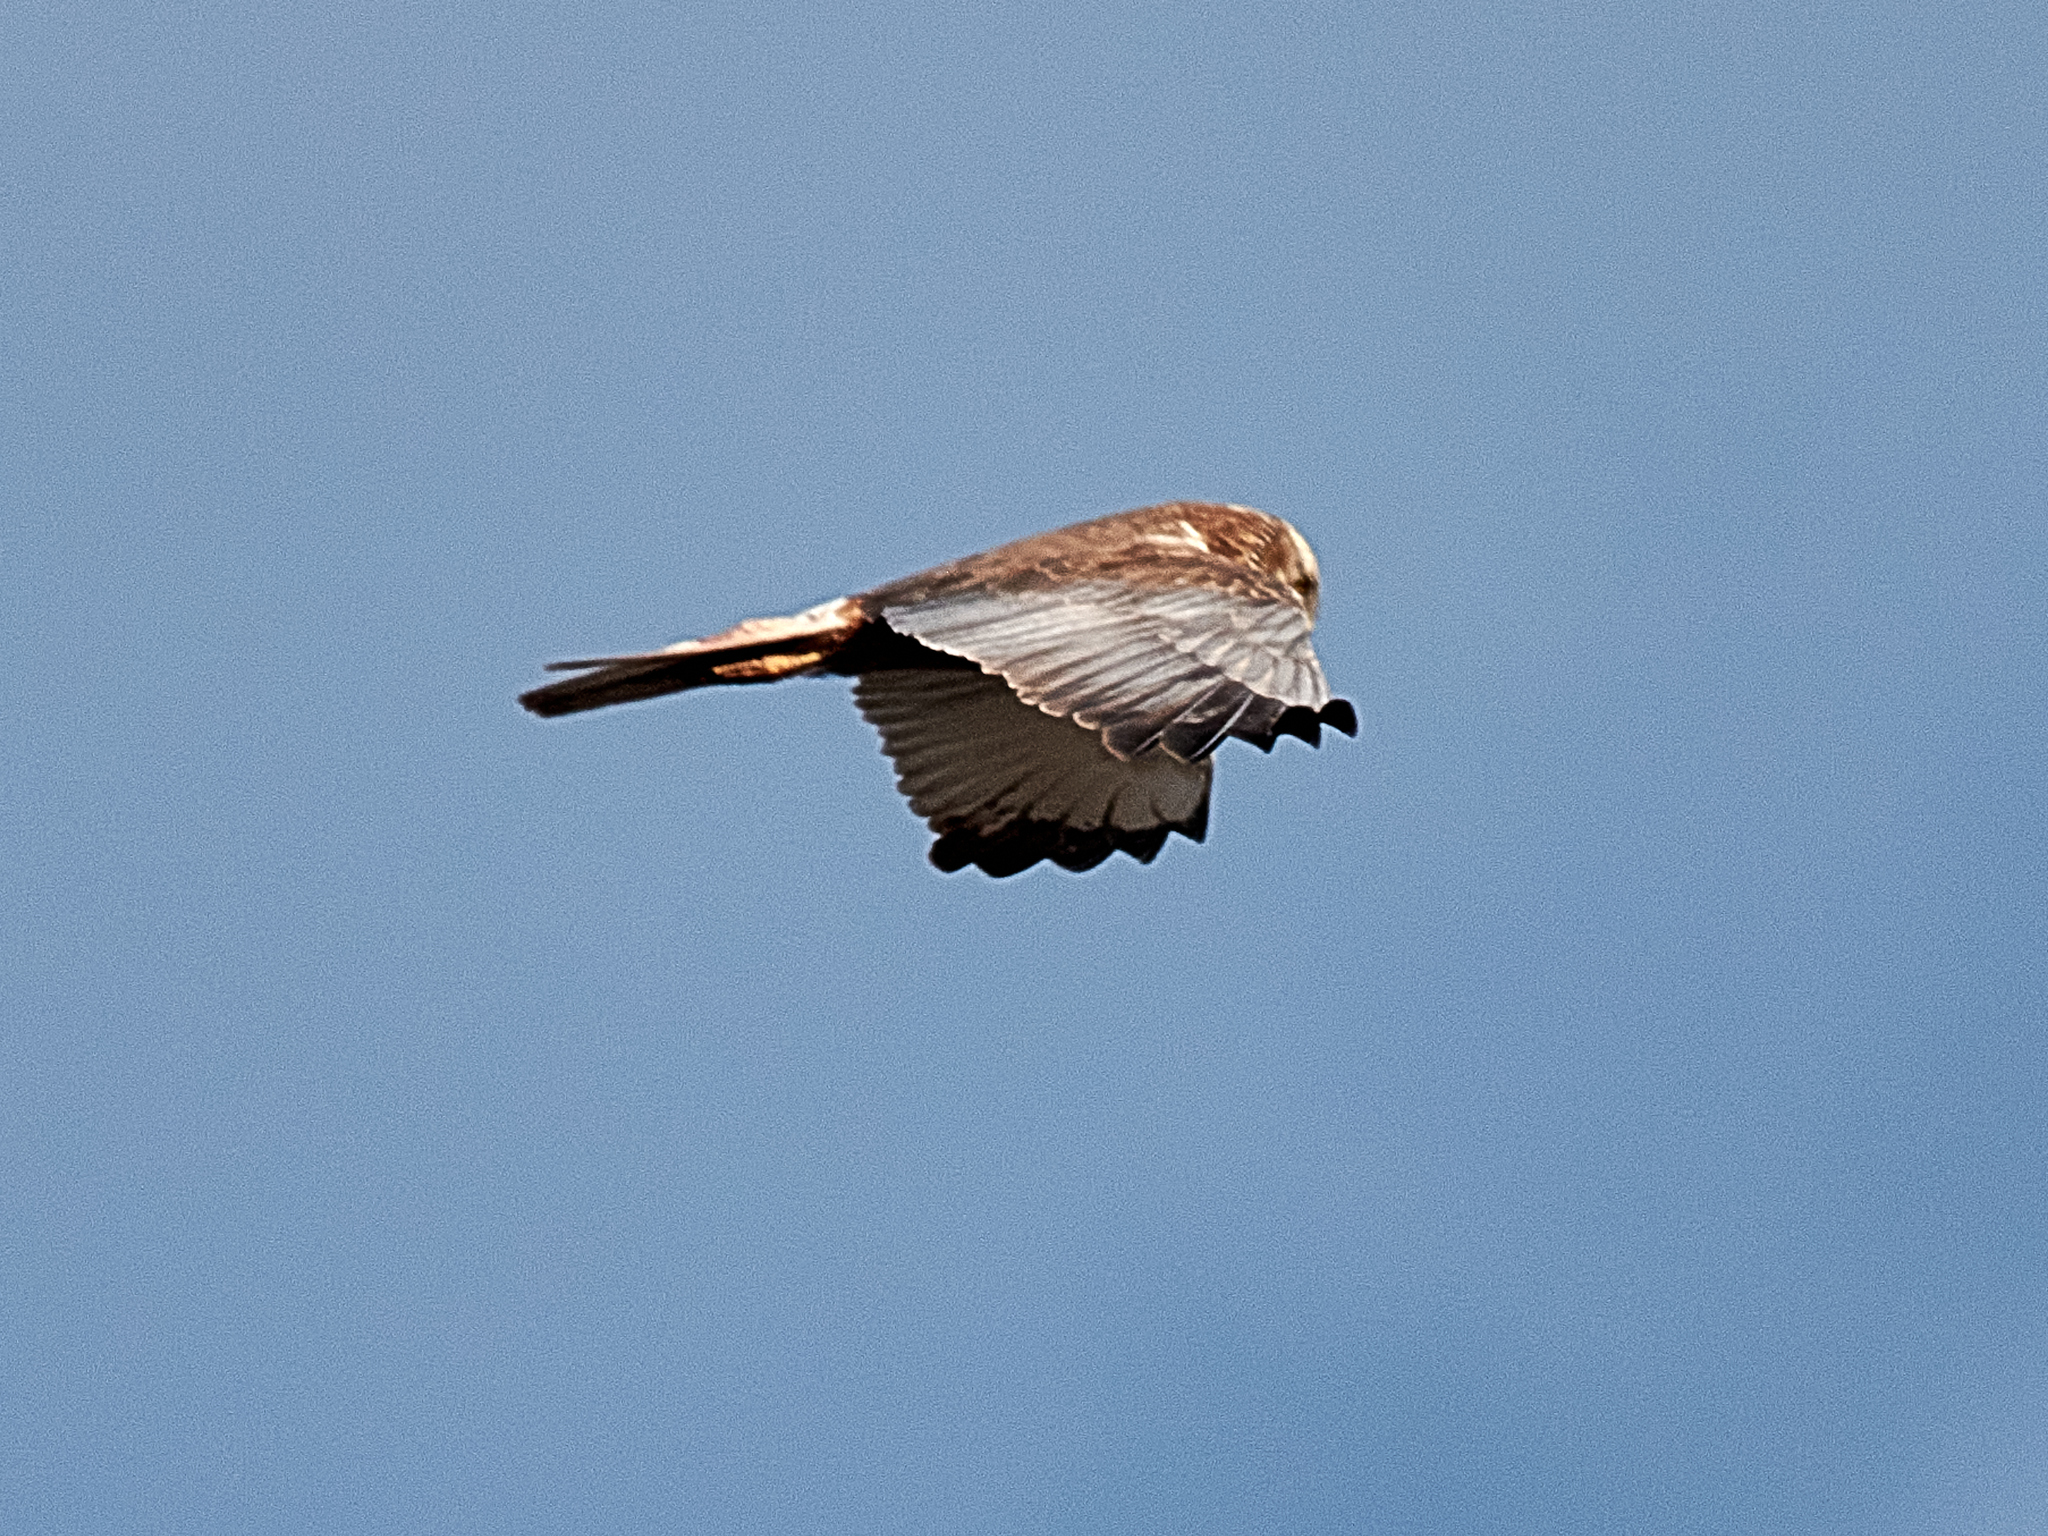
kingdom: Animalia
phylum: Chordata
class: Aves
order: Accipitriformes
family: Accipitridae
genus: Circus
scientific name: Circus aeruginosus
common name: Western marsh harrier
